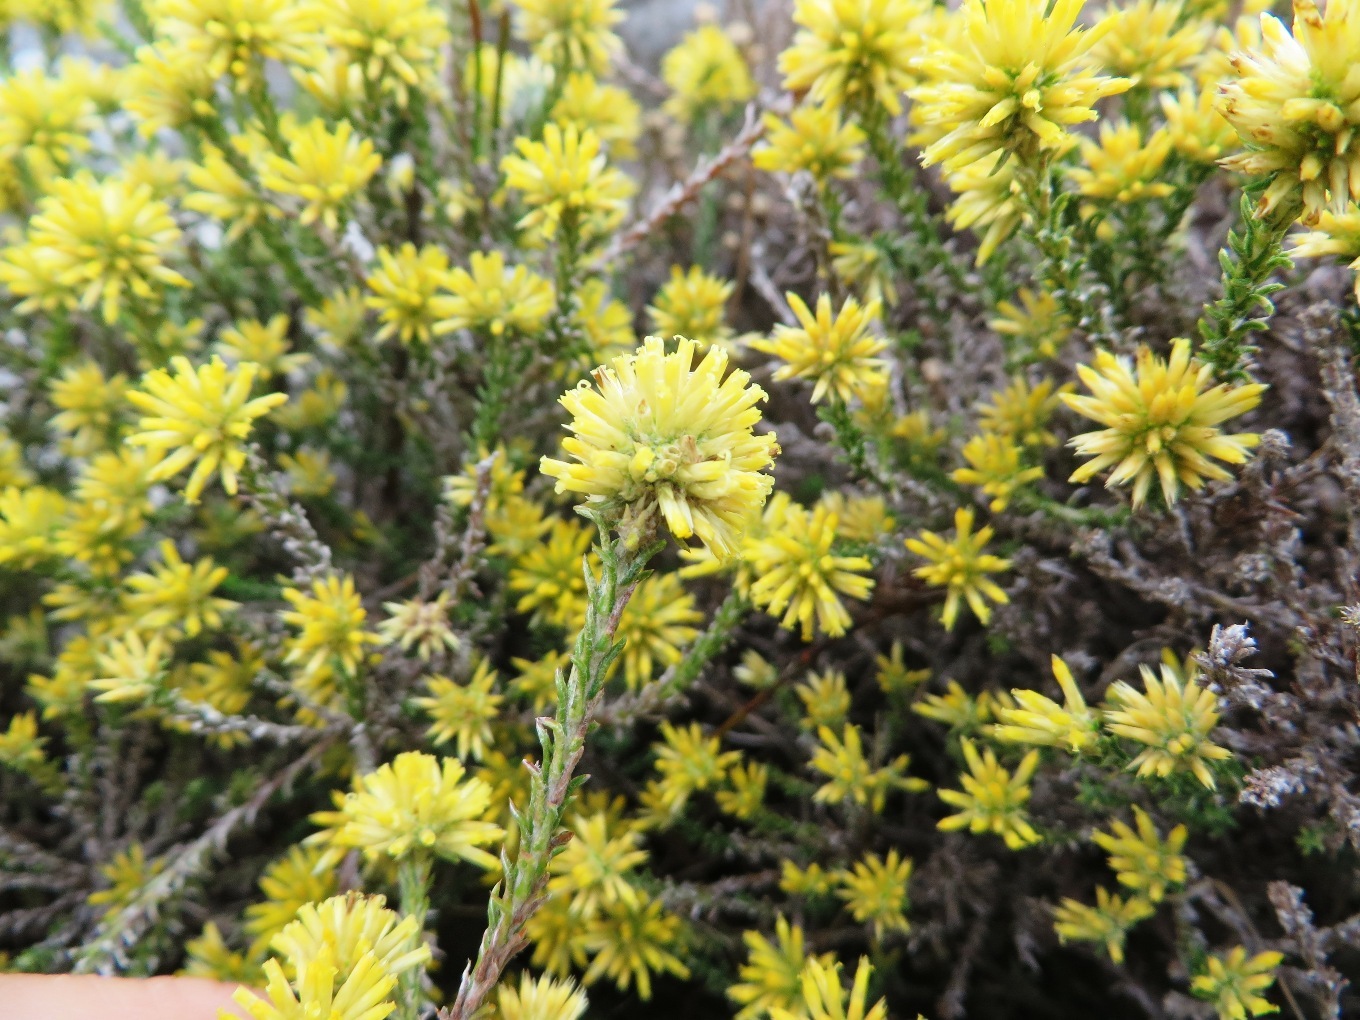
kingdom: Plantae
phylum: Tracheophyta
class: Magnoliopsida
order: Asterales
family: Asteraceae
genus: Seriphium
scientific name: Seriphium spirale
